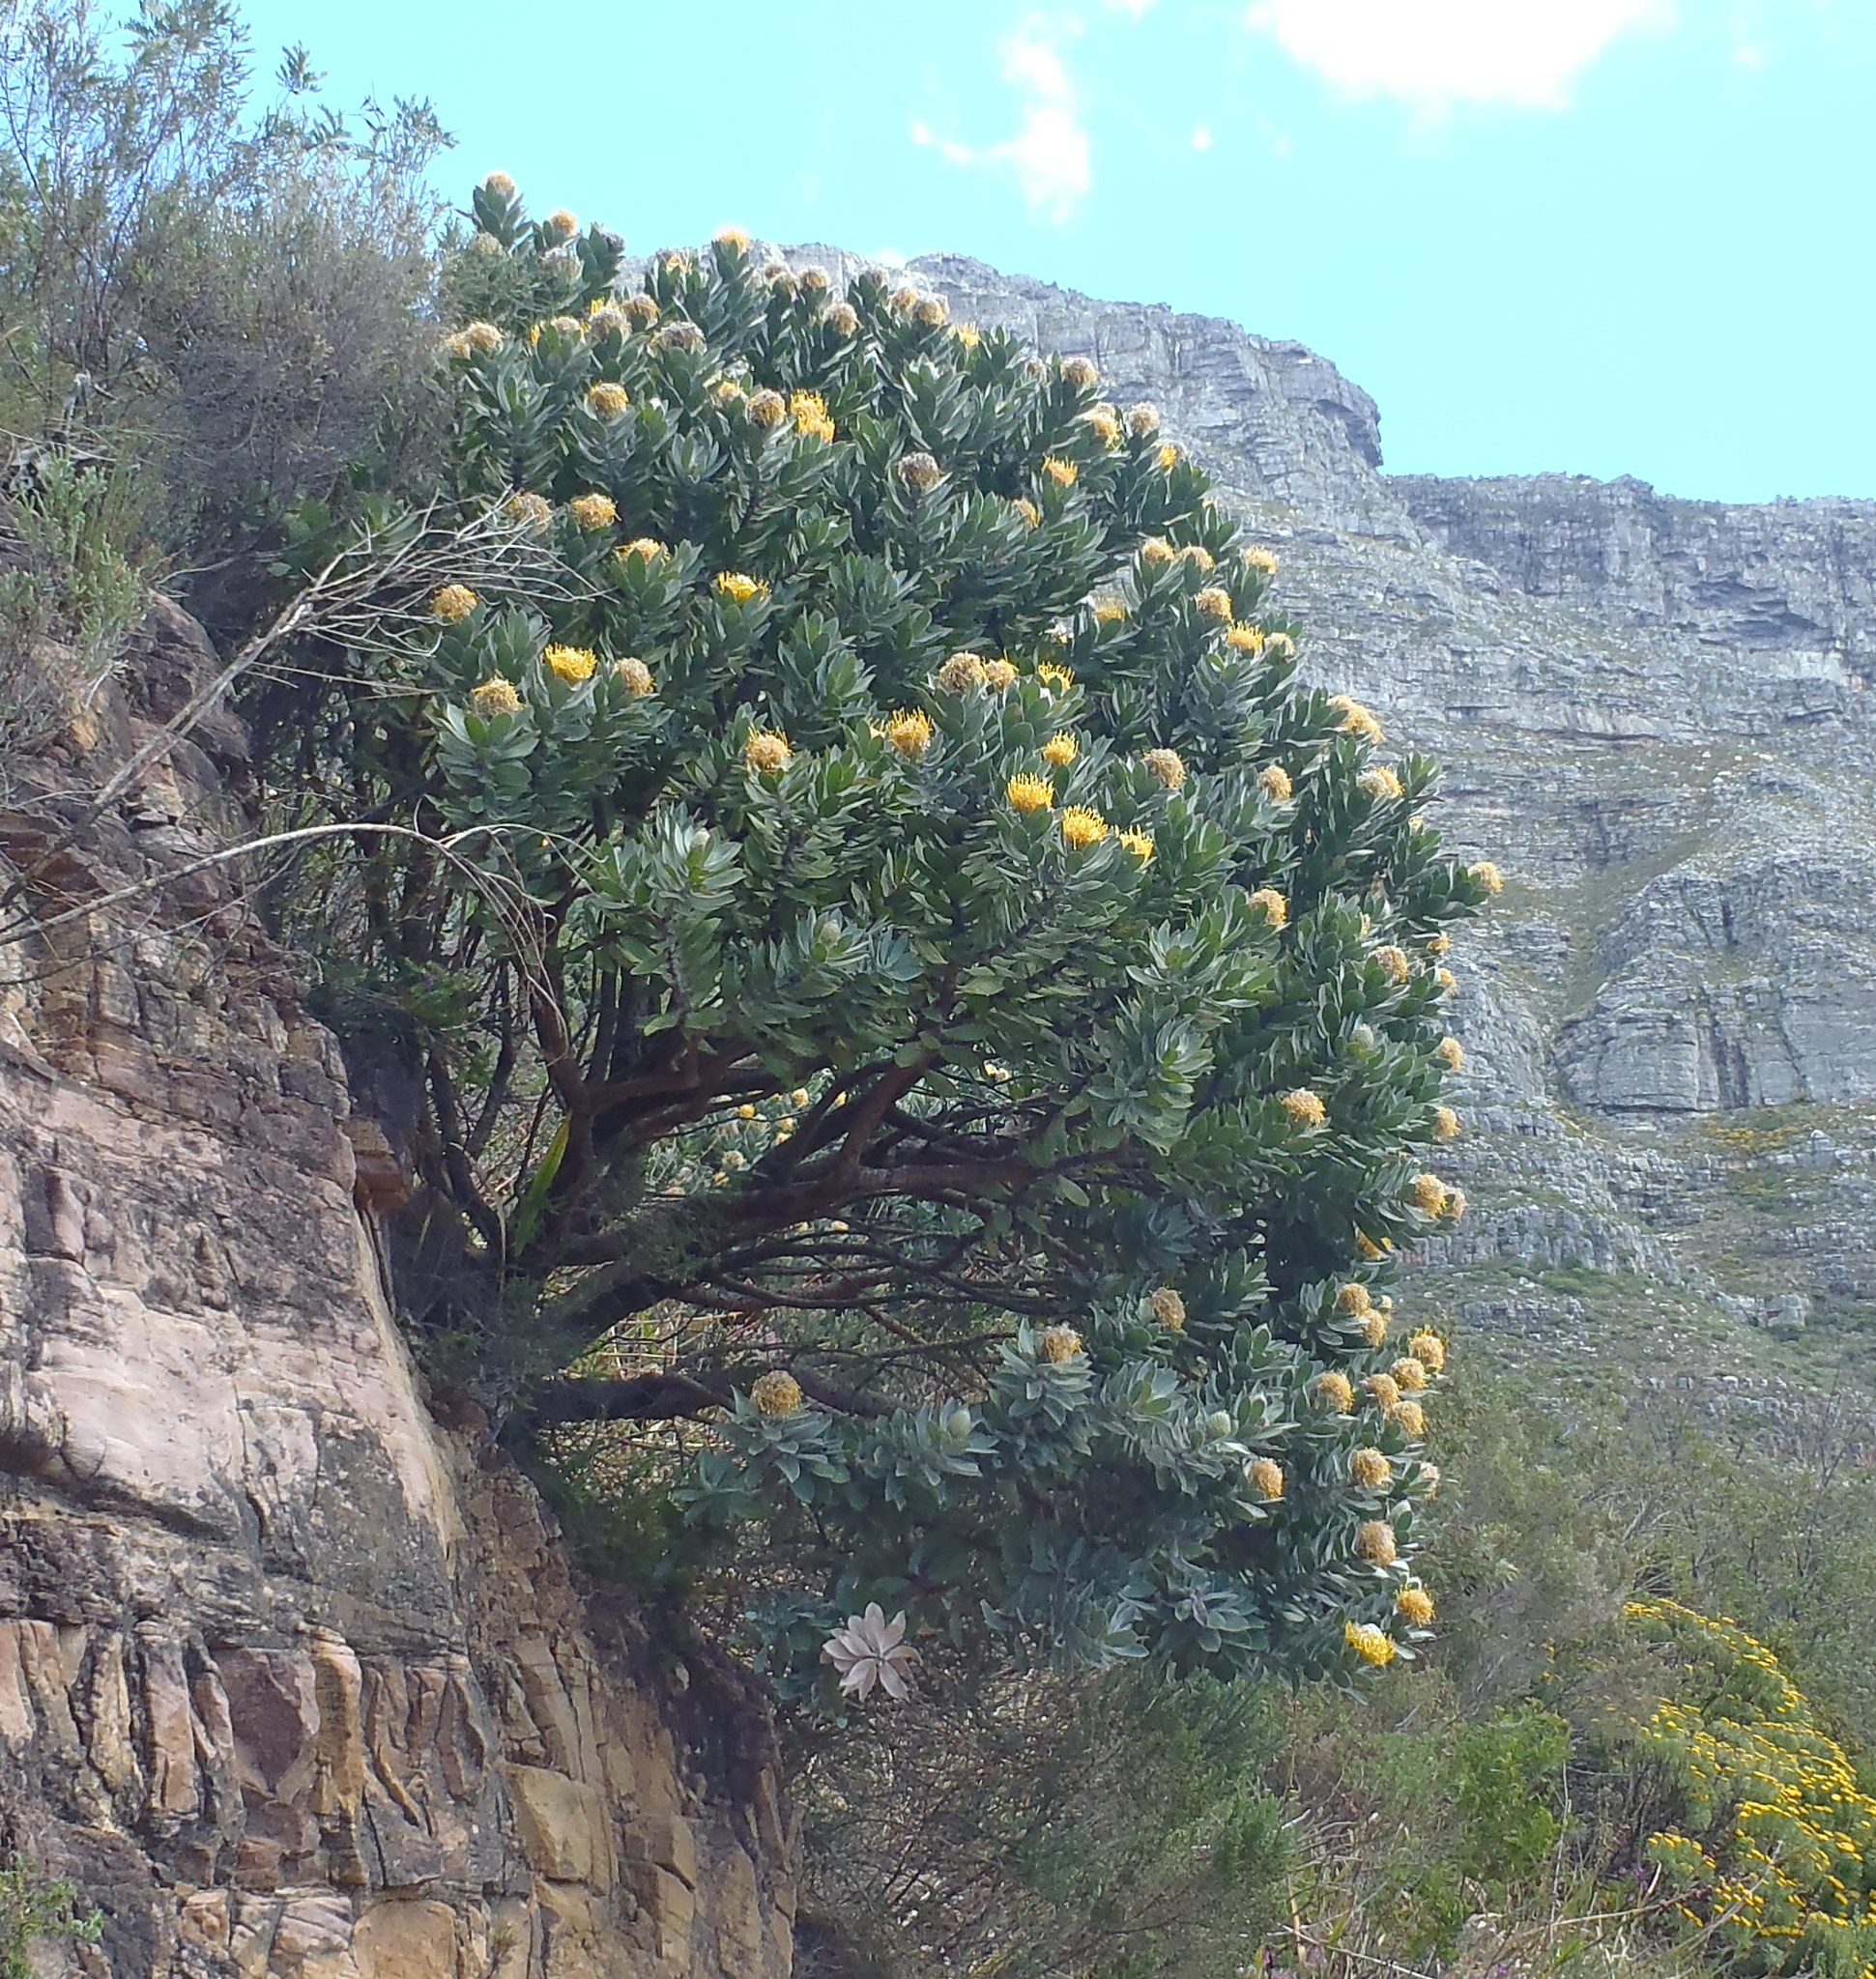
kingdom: Plantae
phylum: Tracheophyta
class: Magnoliopsida
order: Proteales
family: Proteaceae
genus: Leucospermum
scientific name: Leucospermum conocarpodendron
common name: Tree pincushion
